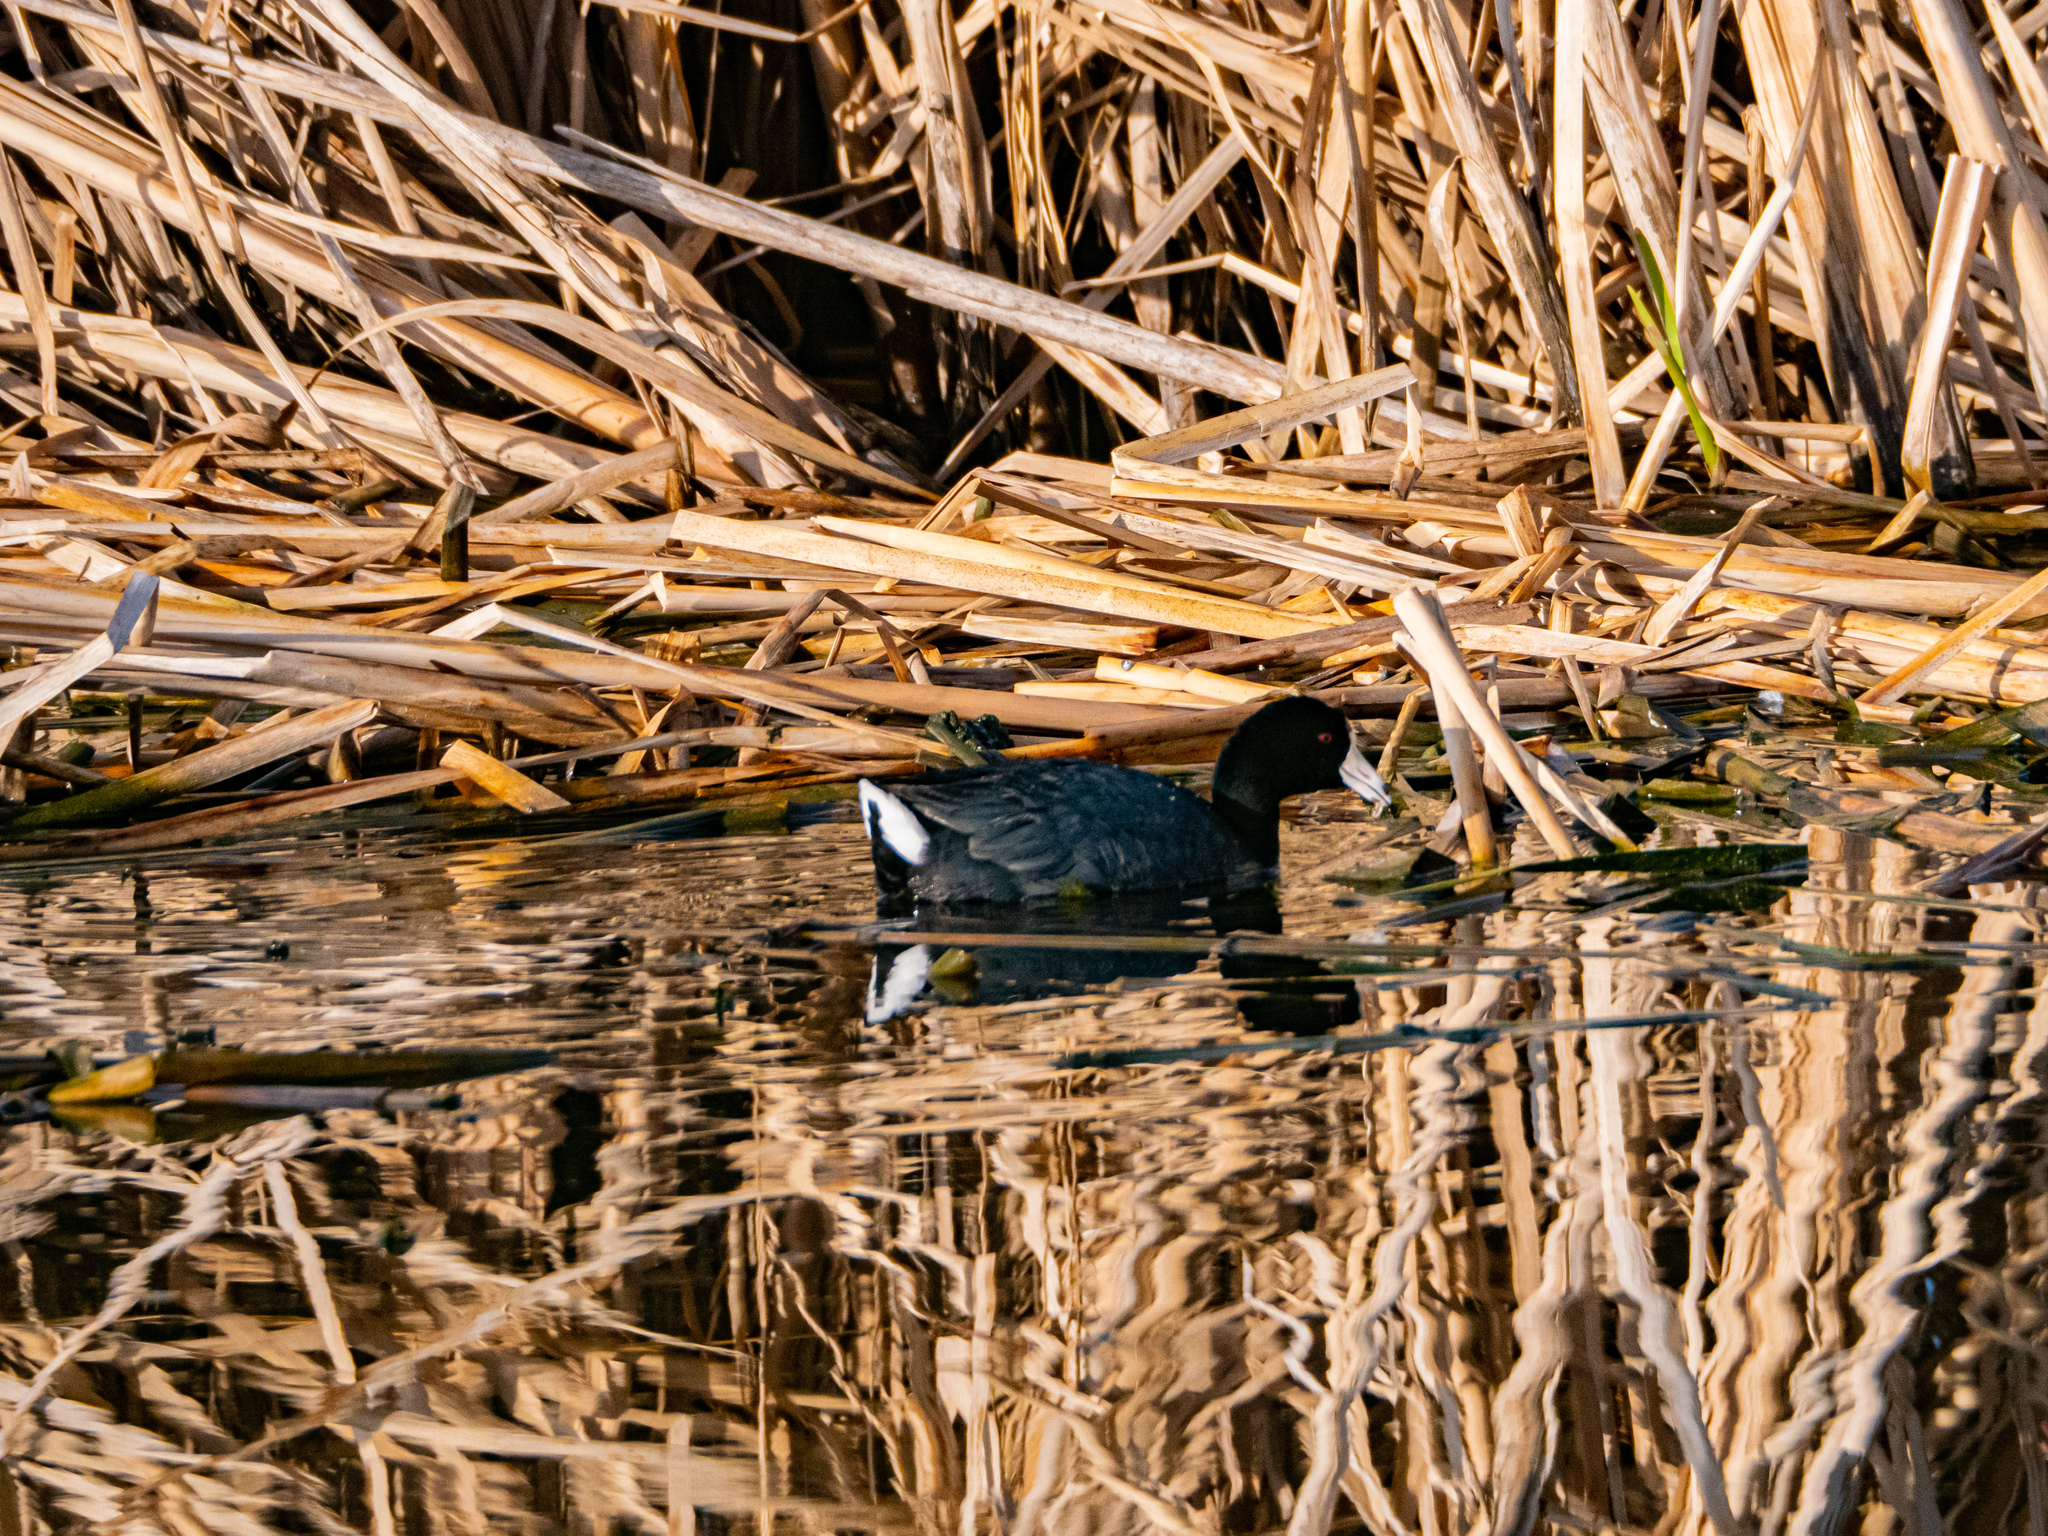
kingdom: Animalia
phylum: Chordata
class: Aves
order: Gruiformes
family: Rallidae
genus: Fulica
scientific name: Fulica americana
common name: American coot
